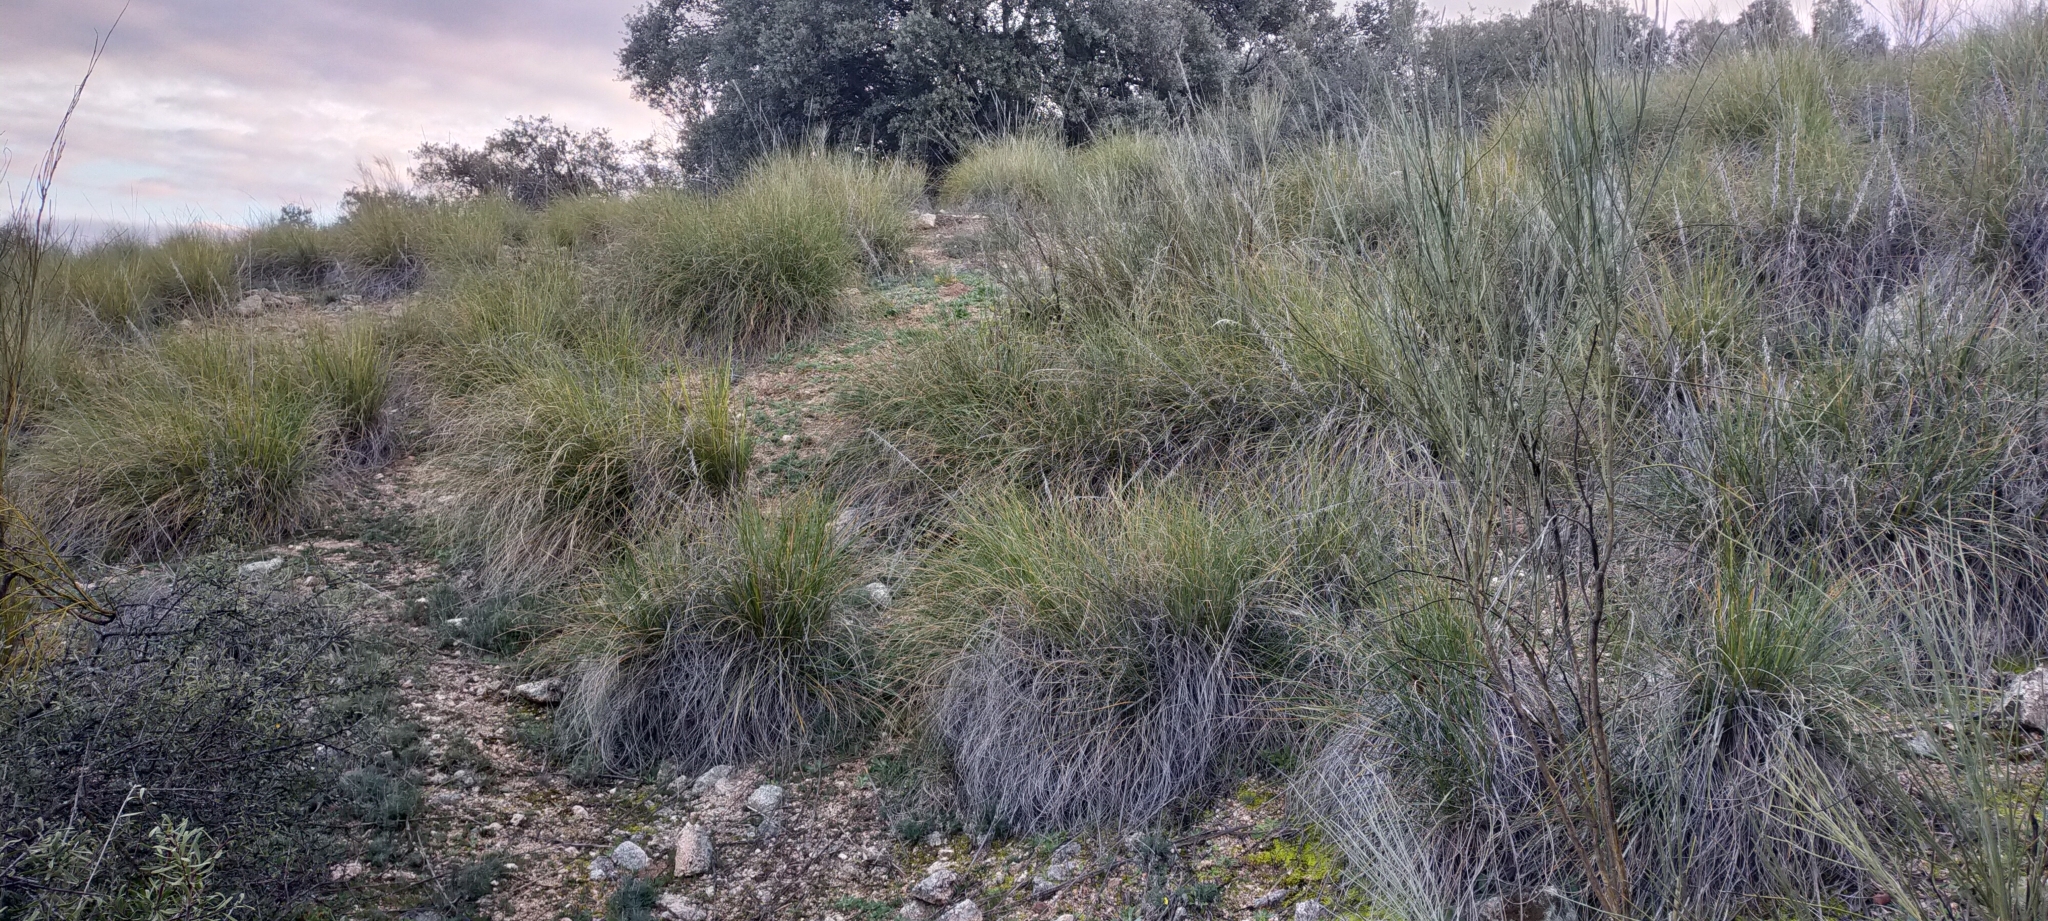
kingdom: Plantae
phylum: Tracheophyta
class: Liliopsida
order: Poales
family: Poaceae
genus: Macrochloa
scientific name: Macrochloa tenacissima
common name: Alfa grass
